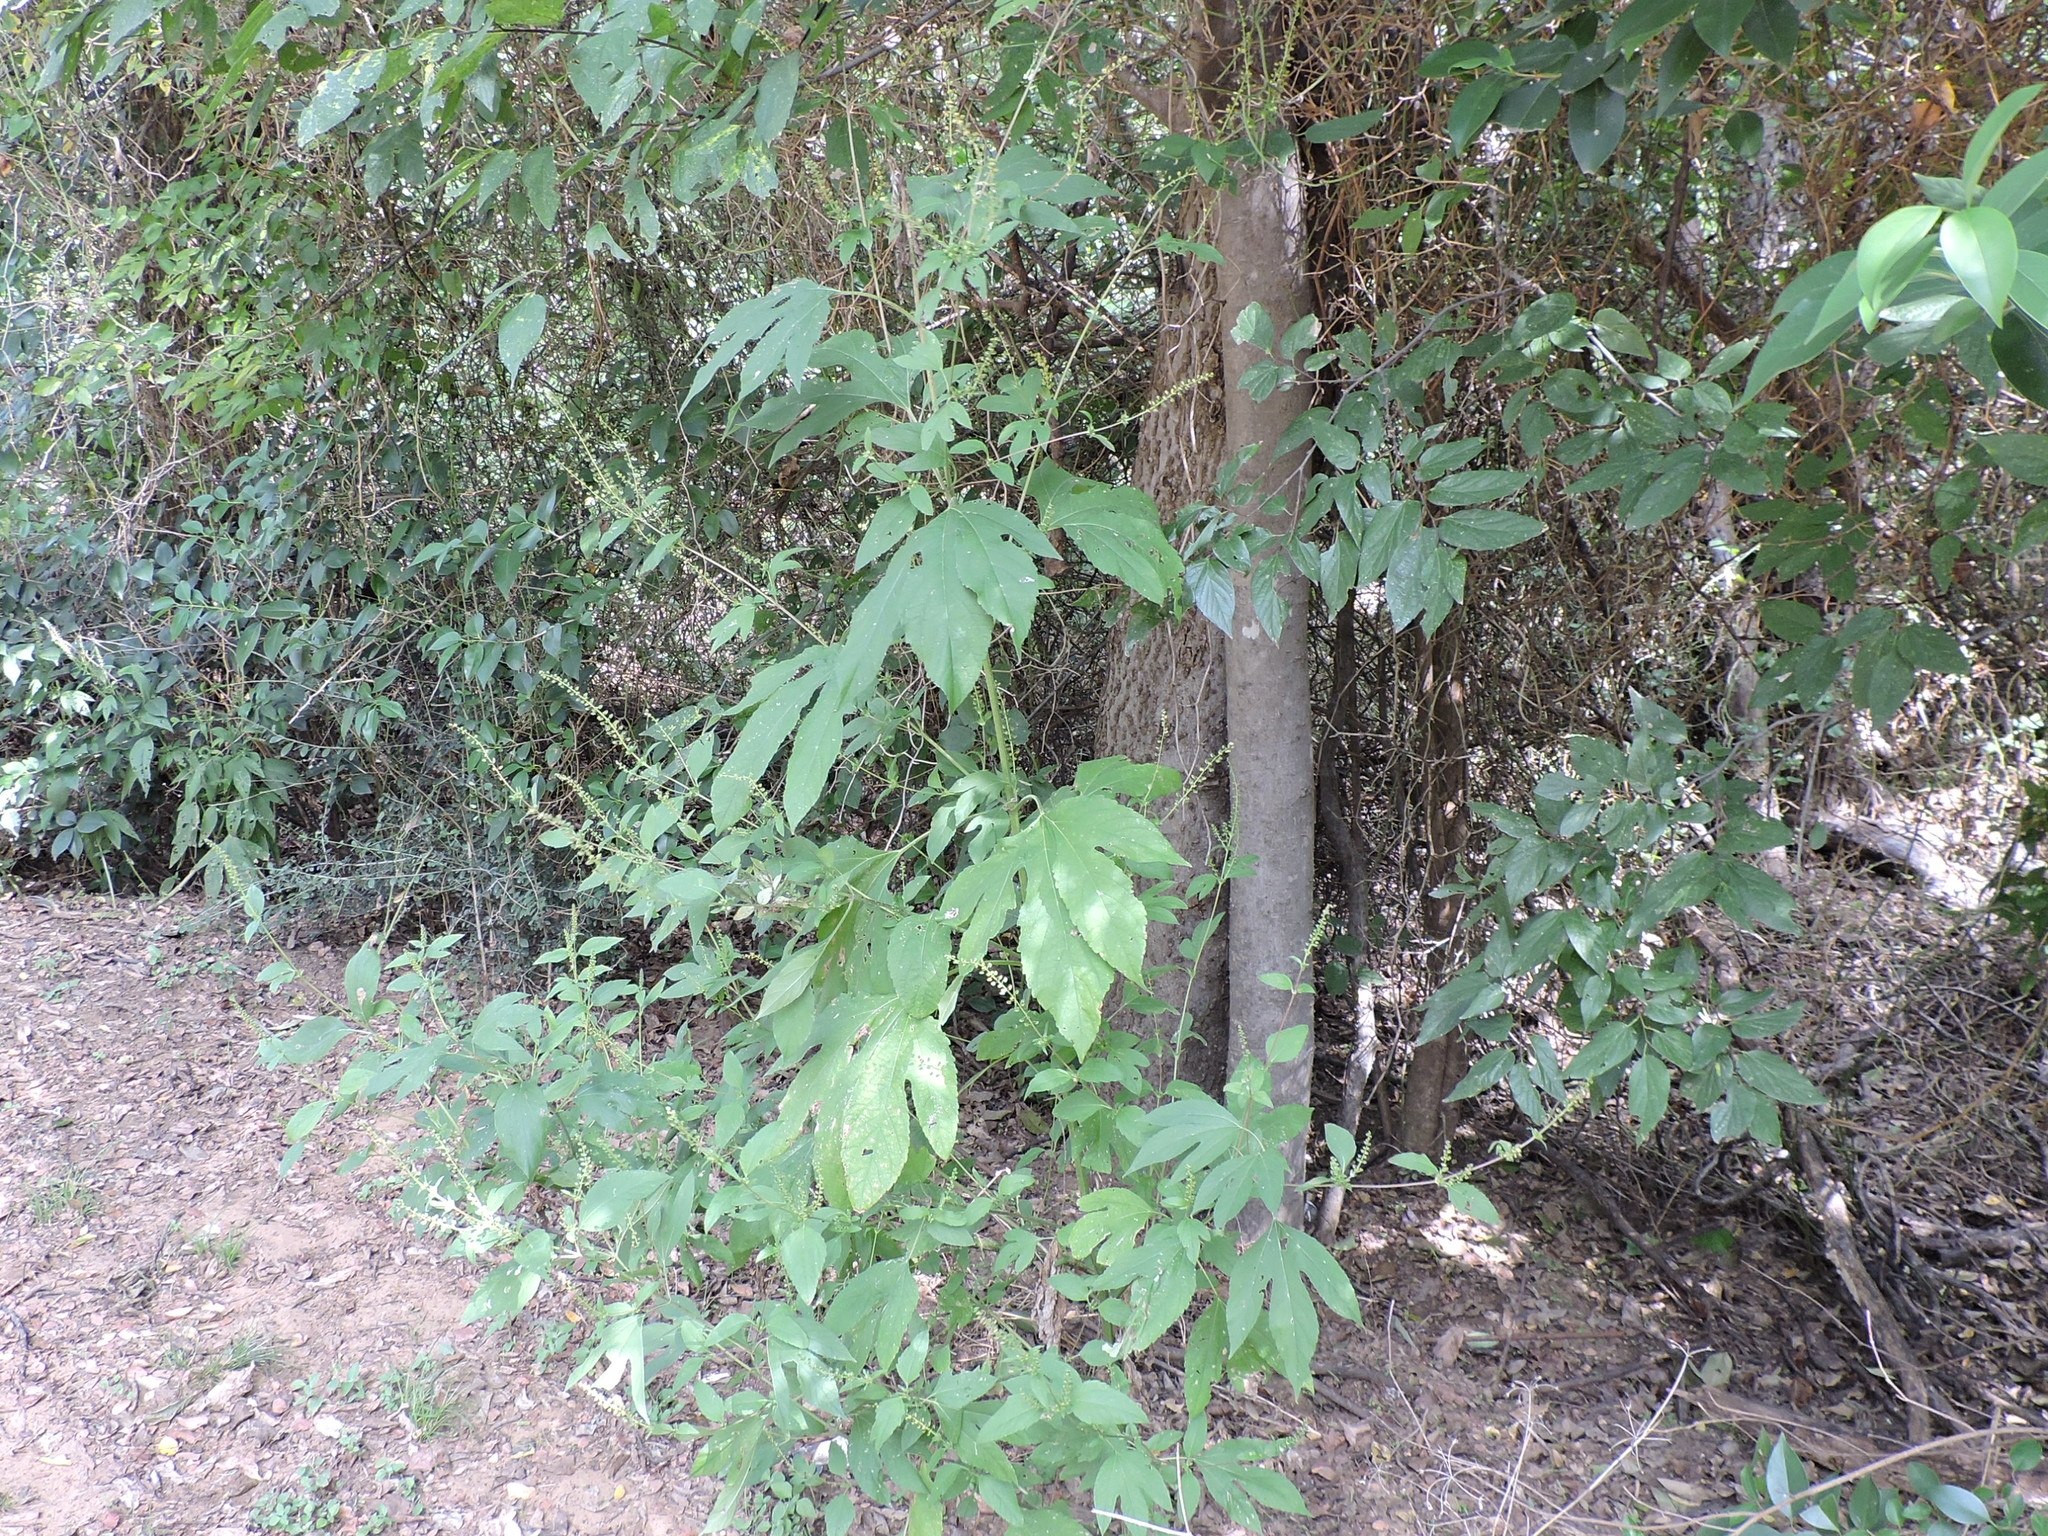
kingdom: Plantae
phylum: Tracheophyta
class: Magnoliopsida
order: Asterales
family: Asteraceae
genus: Ambrosia
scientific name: Ambrosia trifida
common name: Giant ragweed
